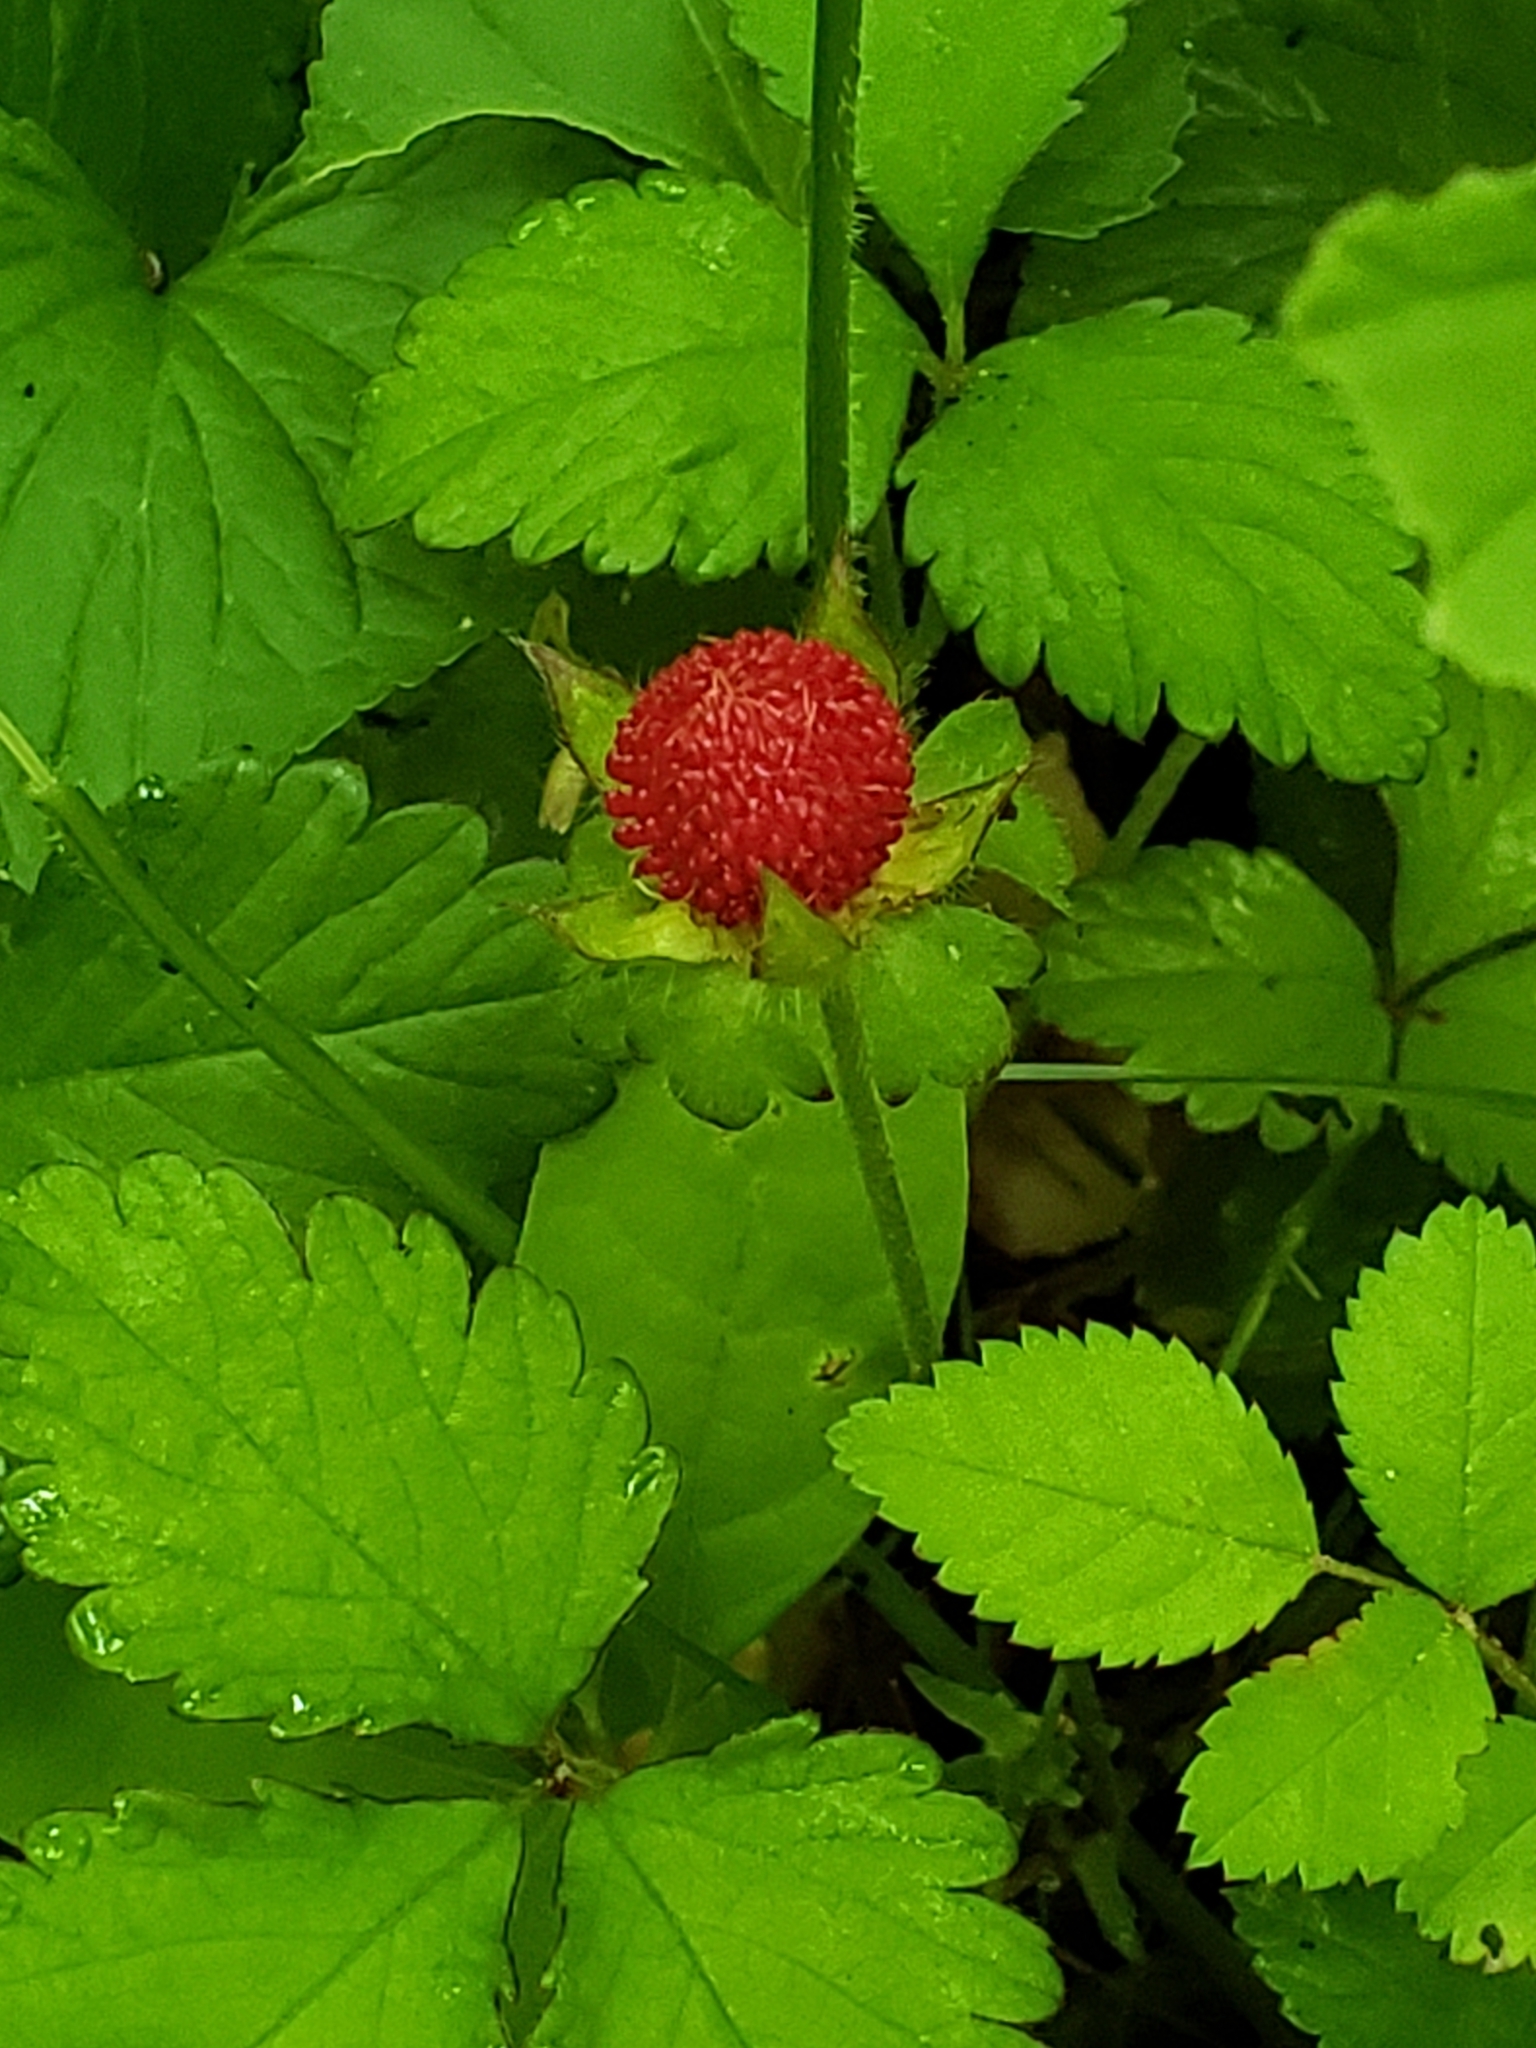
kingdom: Plantae
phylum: Tracheophyta
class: Magnoliopsida
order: Rosales
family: Rosaceae
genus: Potentilla
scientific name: Potentilla indica
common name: Yellow-flowered strawberry
